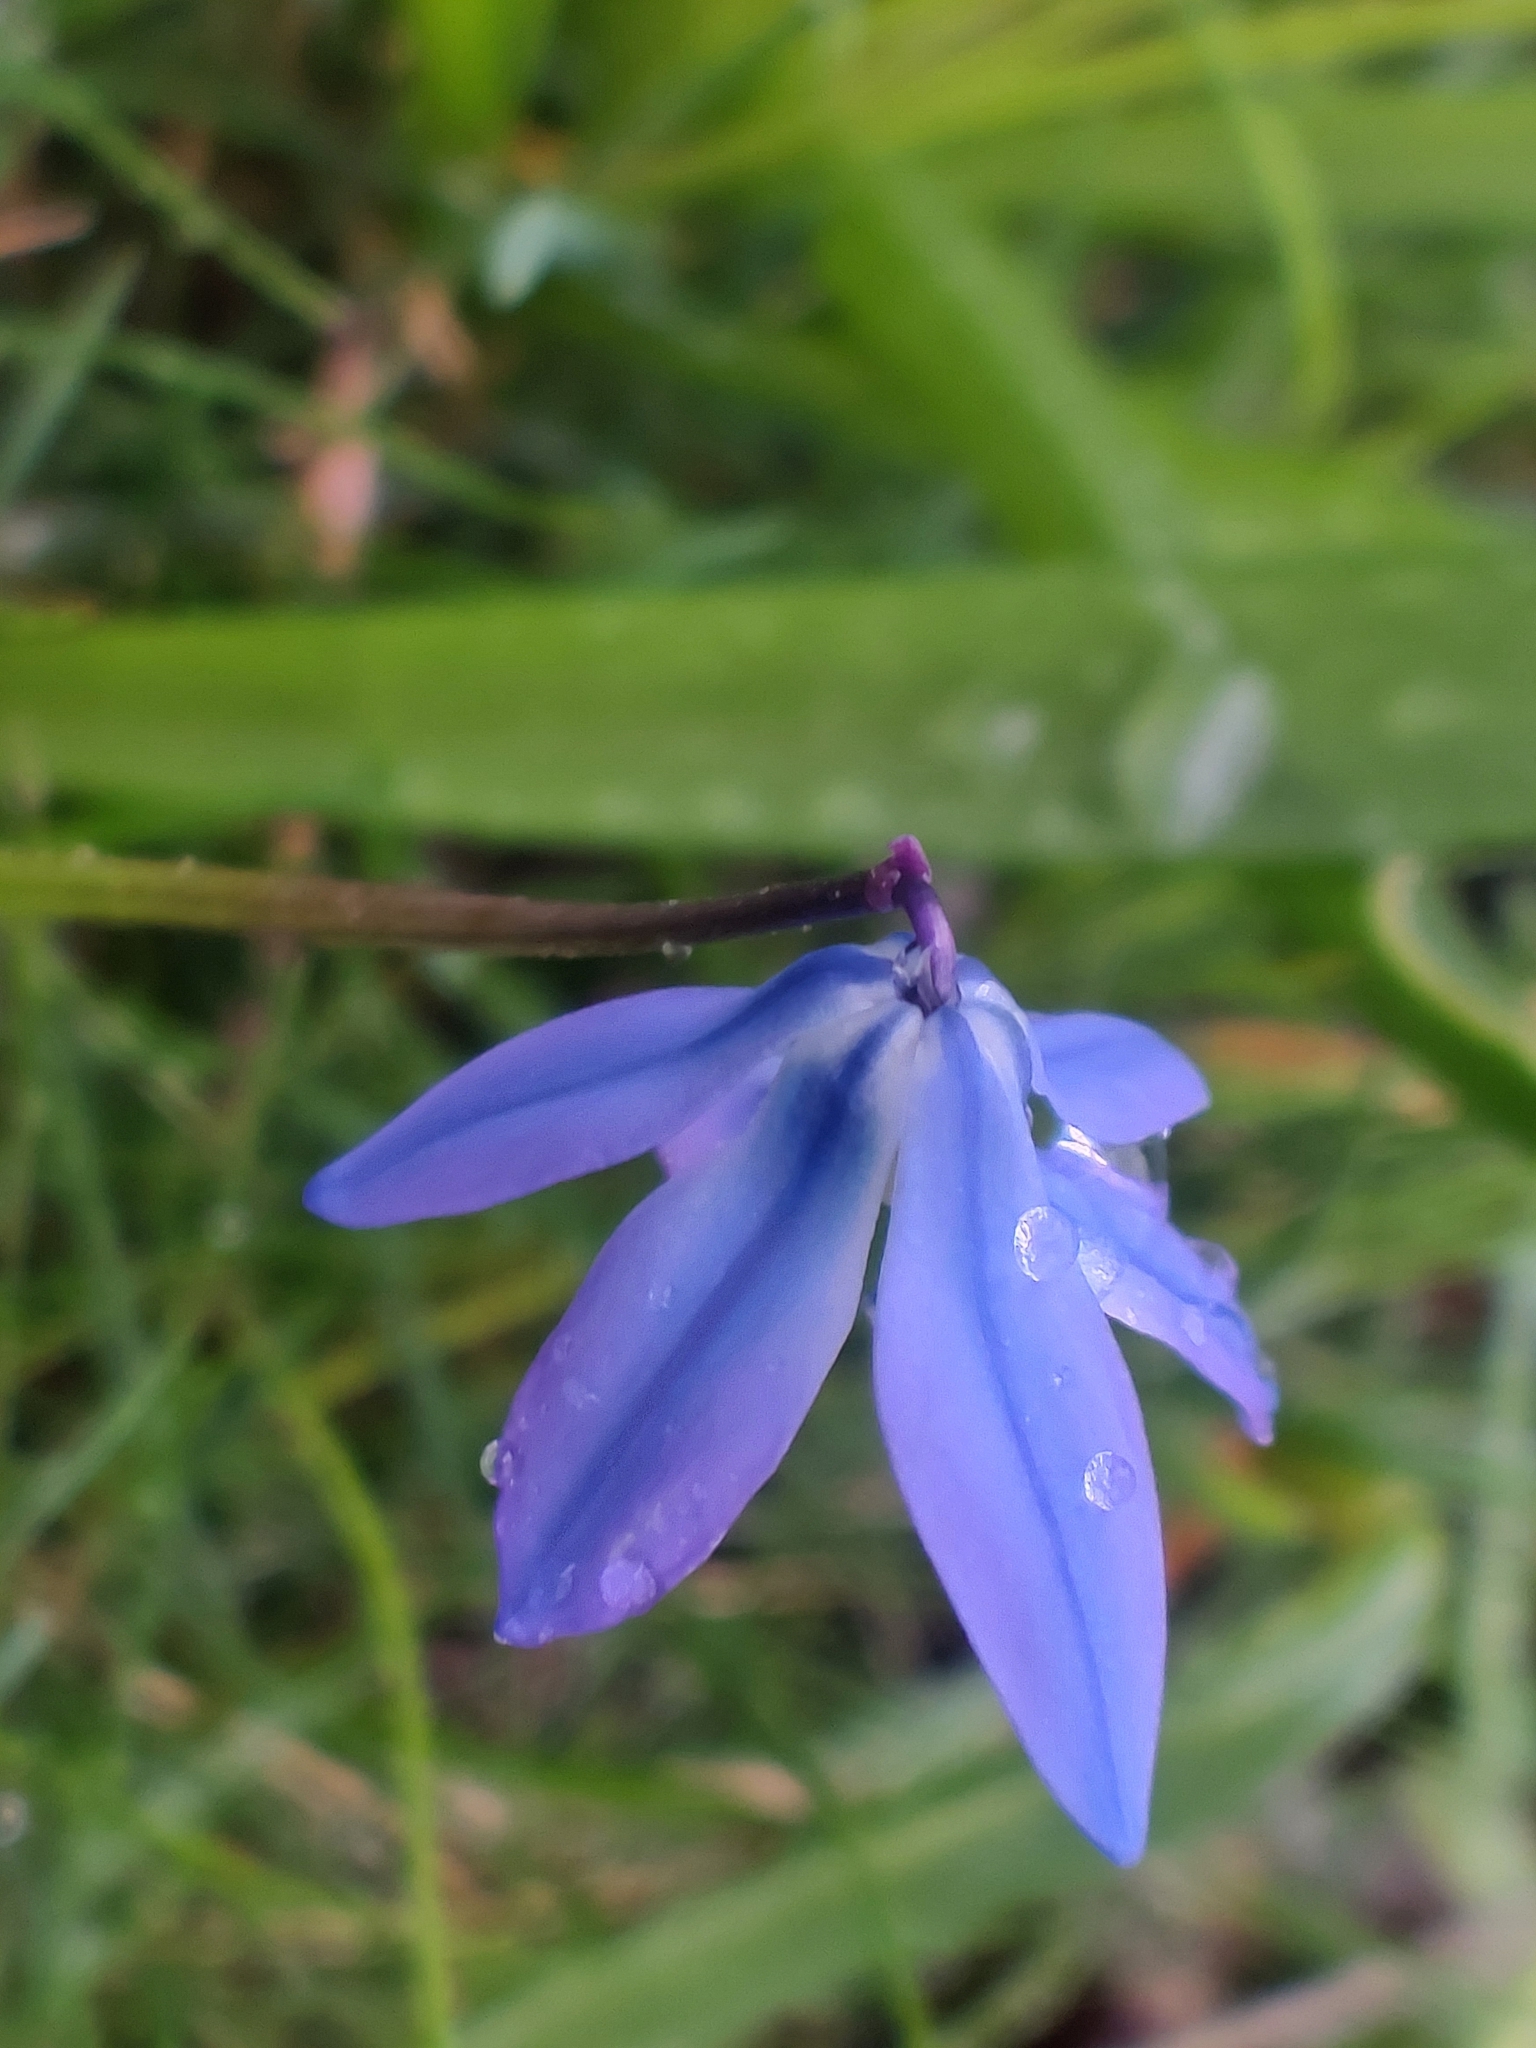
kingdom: Plantae
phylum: Tracheophyta
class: Liliopsida
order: Asparagales
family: Asparagaceae
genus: Scilla
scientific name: Scilla siberica
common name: Siberian squill
